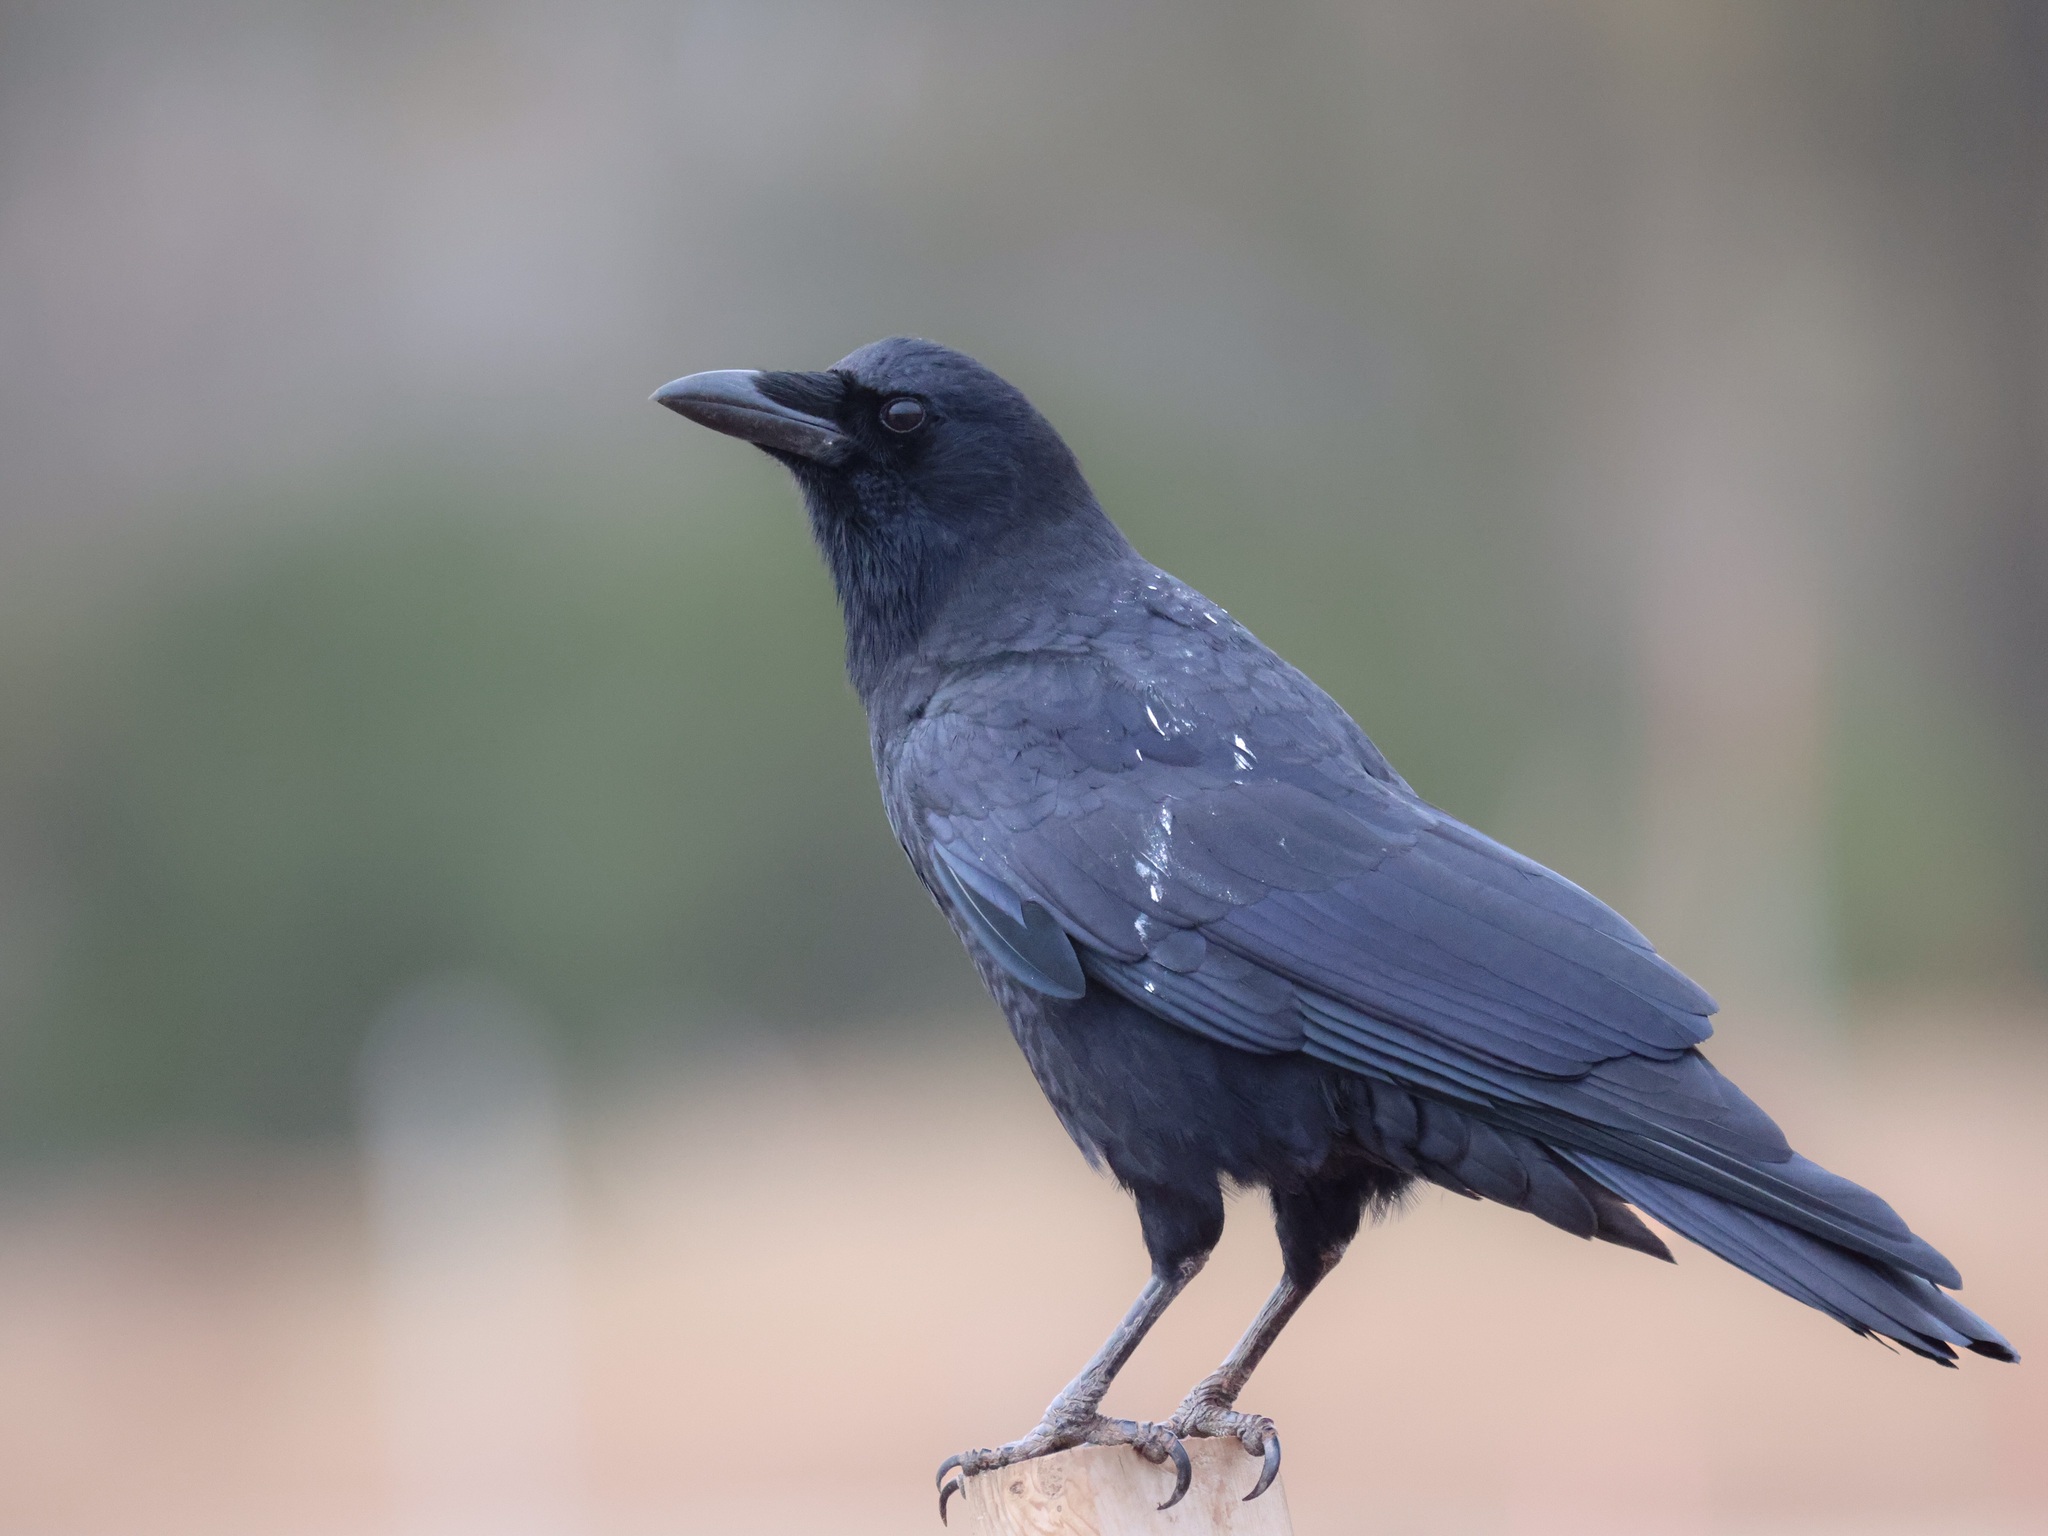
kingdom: Animalia
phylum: Chordata
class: Aves
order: Passeriformes
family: Corvidae
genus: Corvus
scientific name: Corvus brachyrhynchos
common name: American crow
